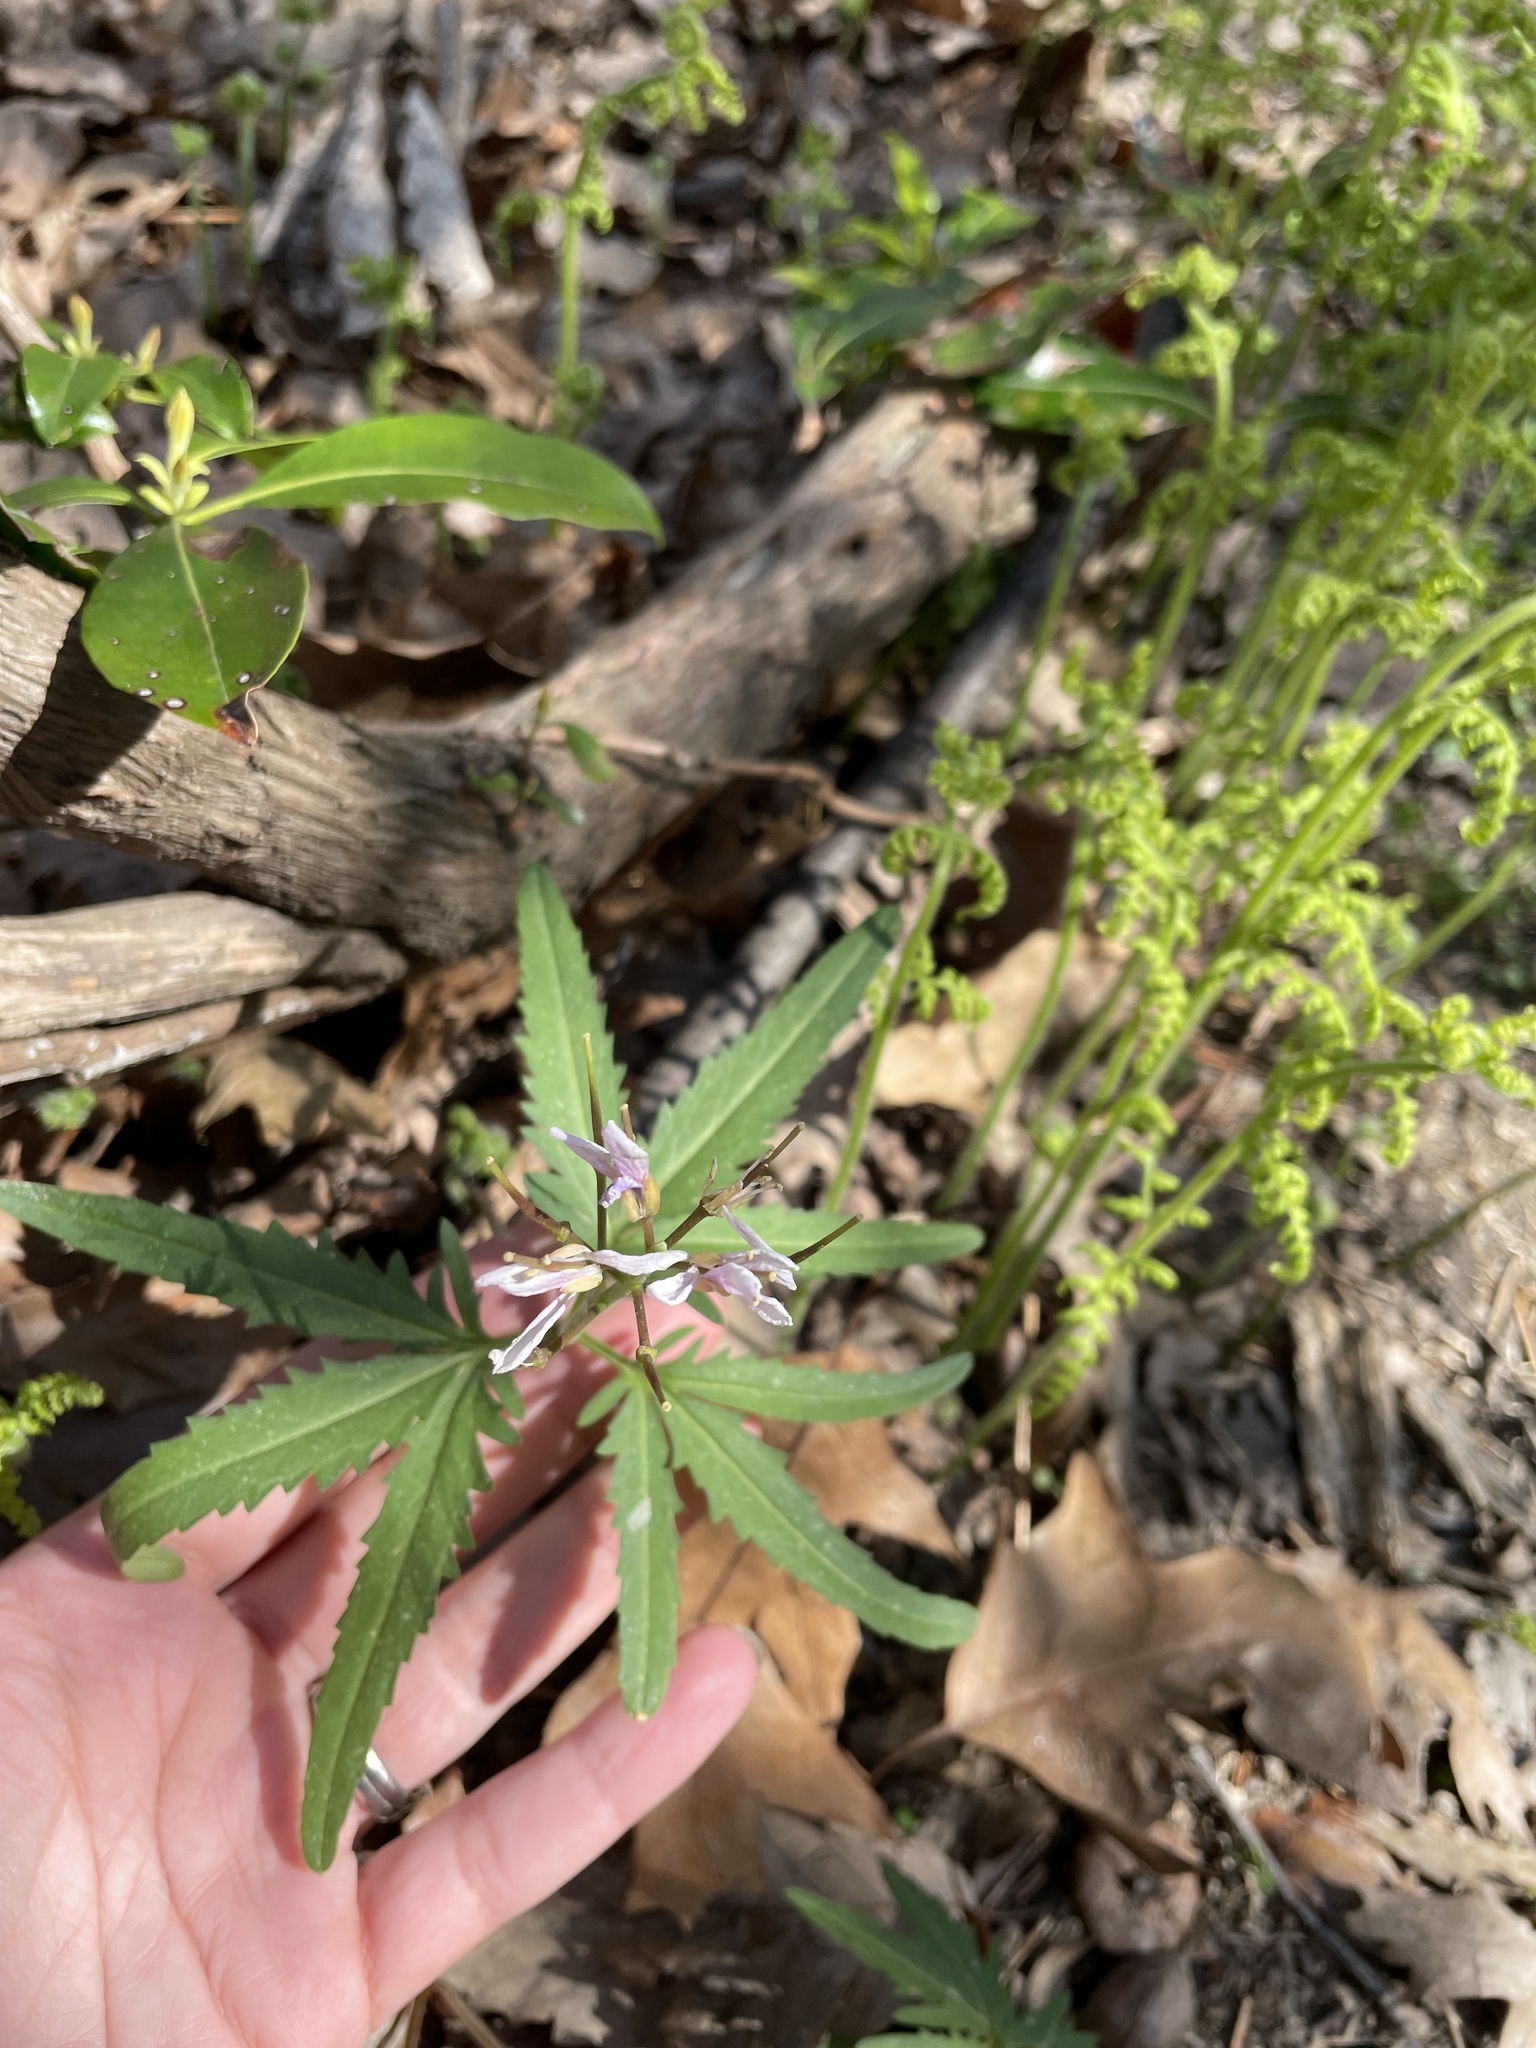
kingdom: Plantae
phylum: Tracheophyta
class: Magnoliopsida
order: Brassicales
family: Brassicaceae
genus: Cardamine
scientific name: Cardamine concatenata
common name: Cut-leaf toothcup
